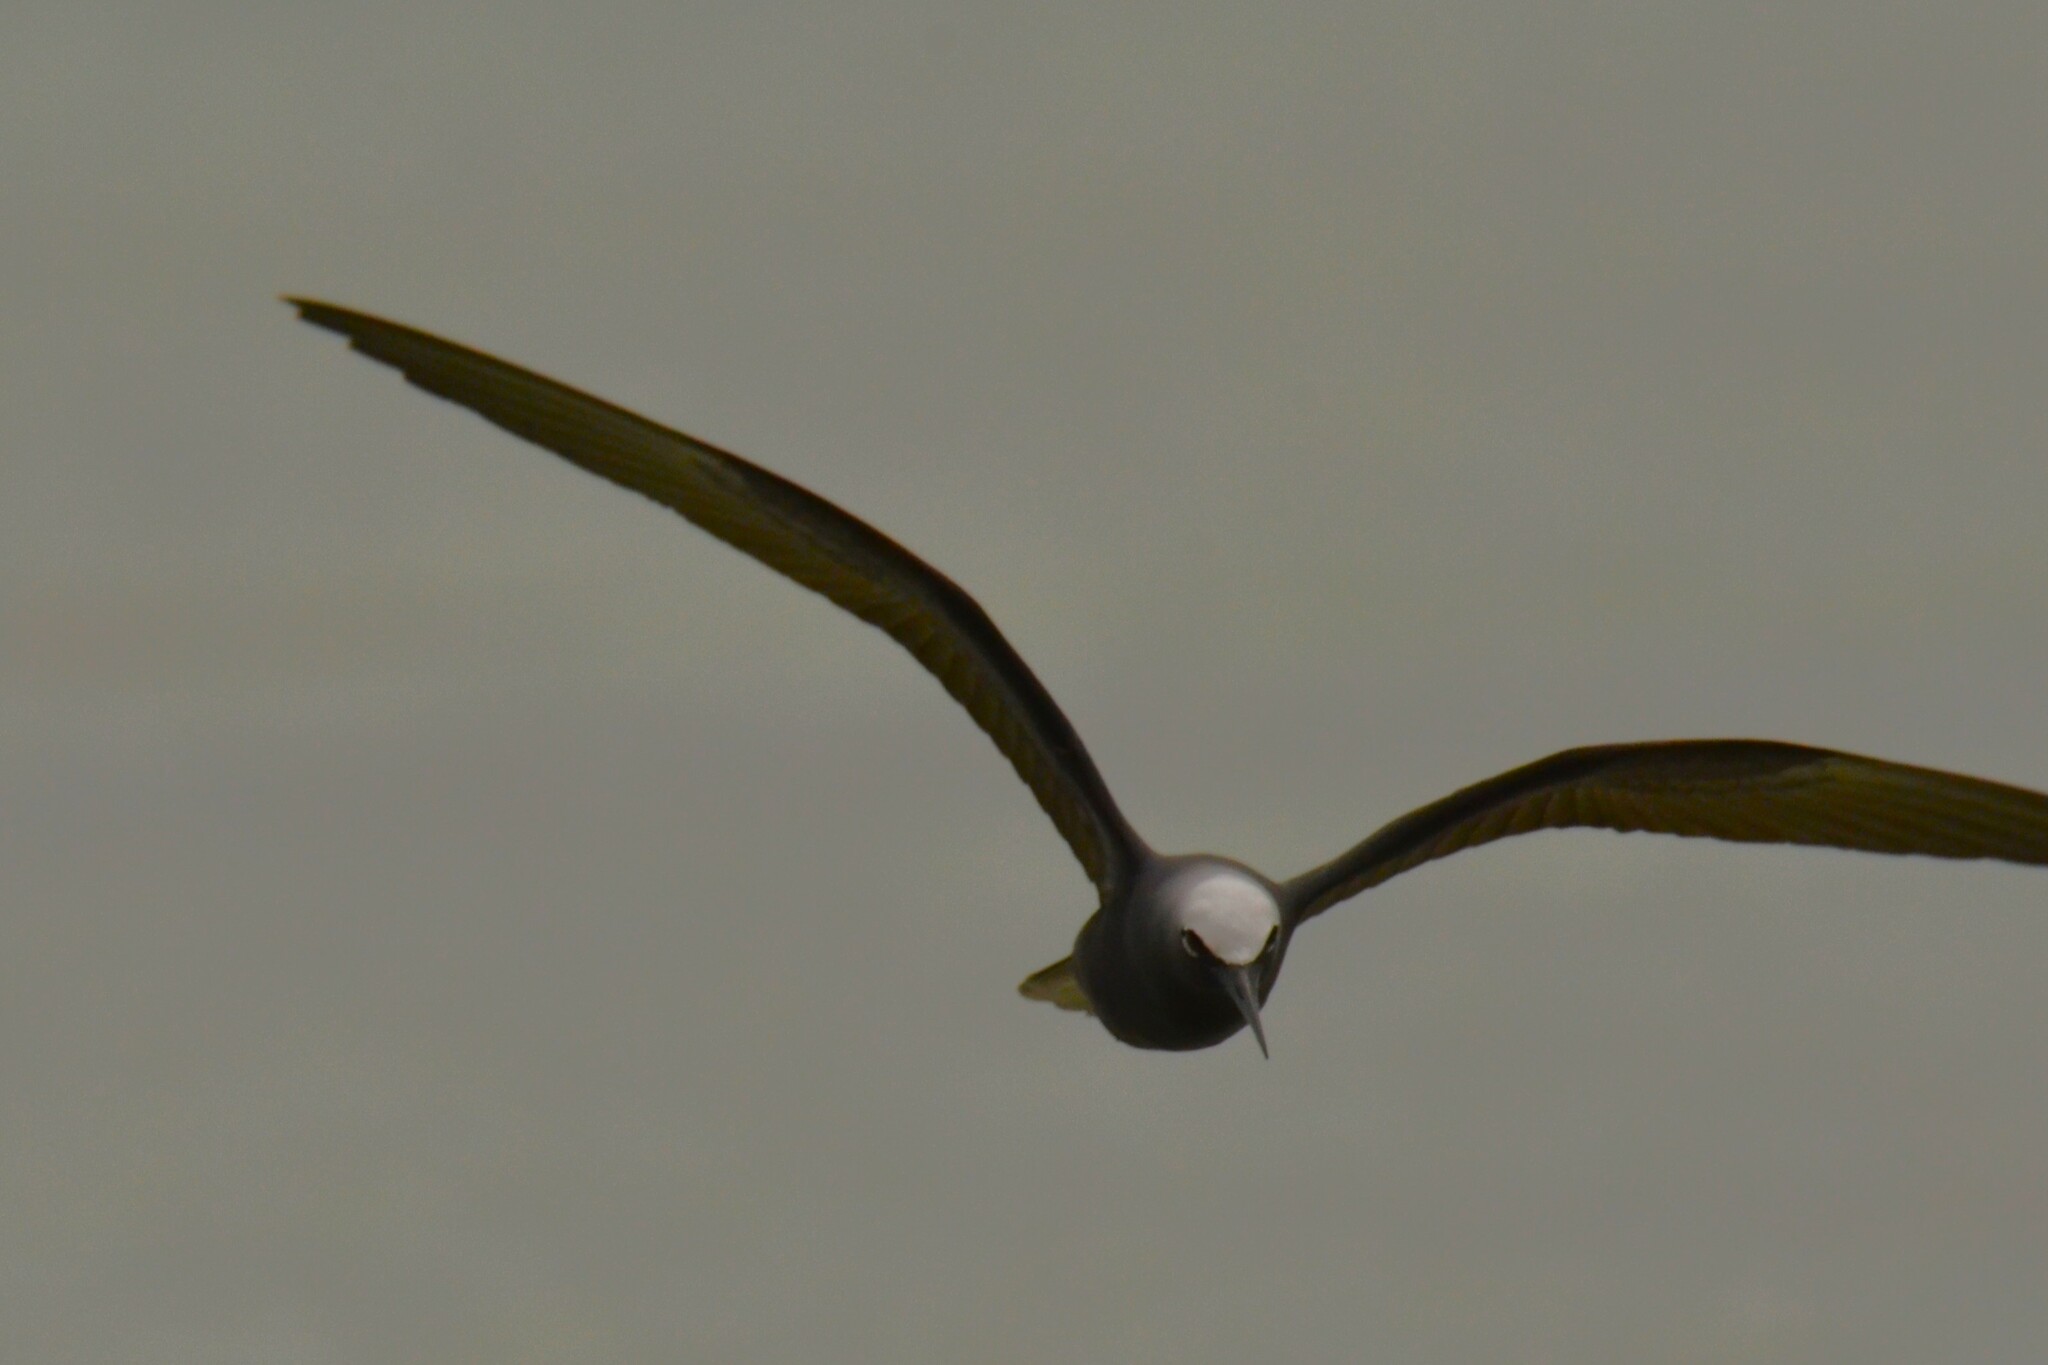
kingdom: Animalia
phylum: Chordata
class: Aves
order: Charadriiformes
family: Laridae
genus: Anous
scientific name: Anous minutus
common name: Black noddy
